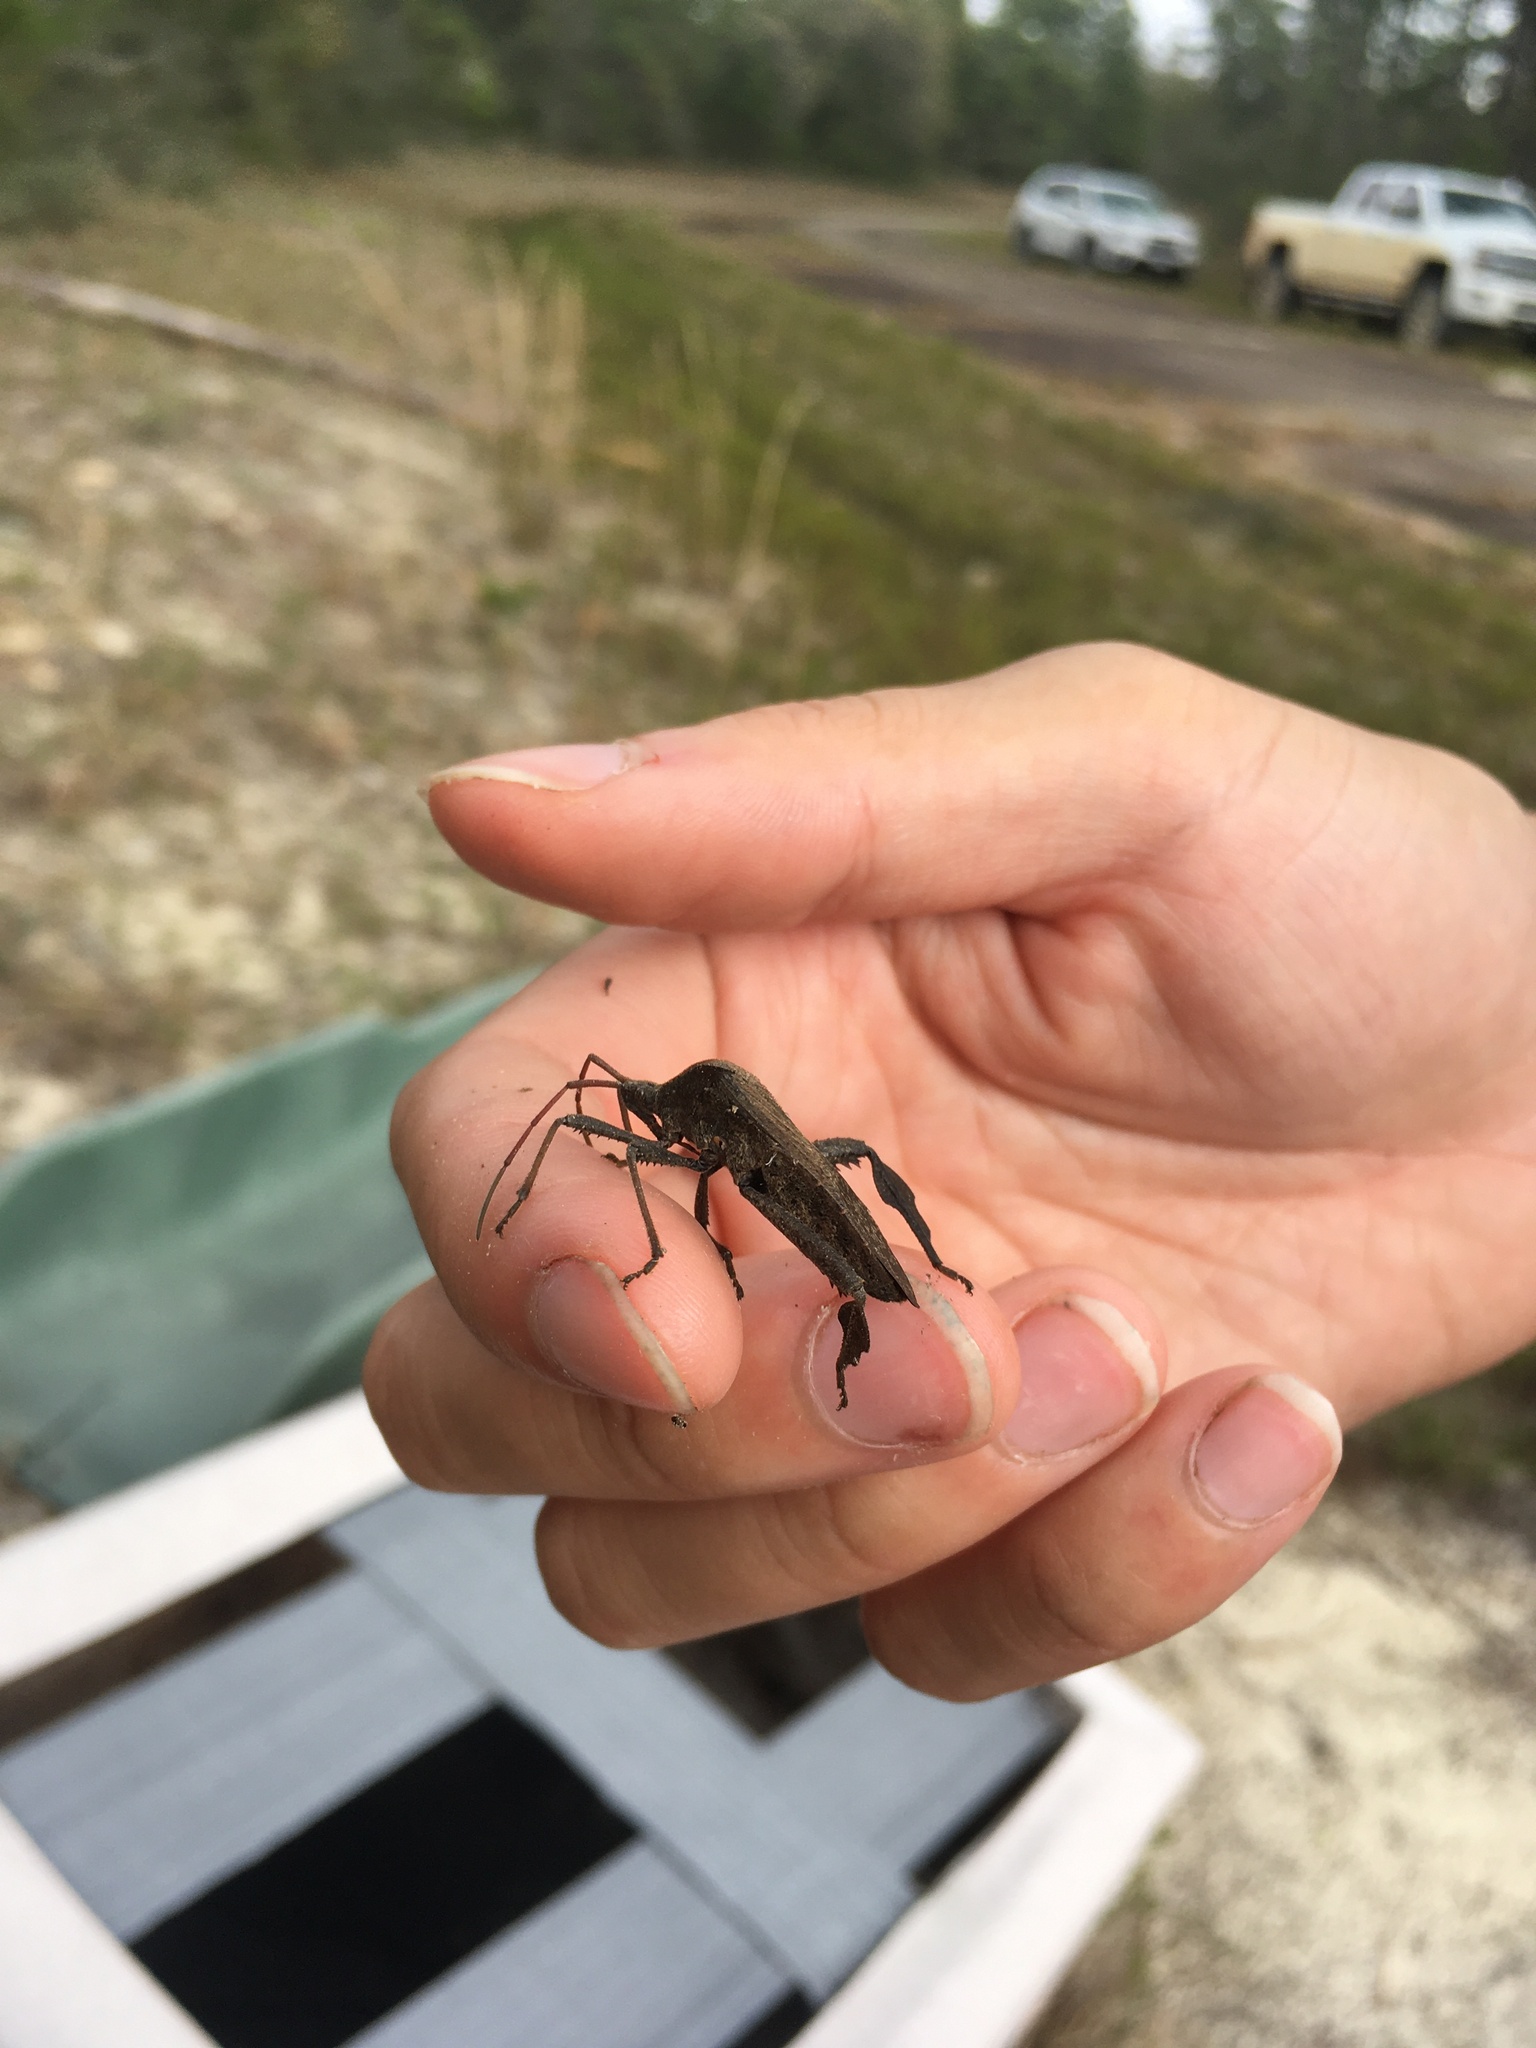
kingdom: Animalia
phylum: Arthropoda
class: Insecta
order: Hemiptera
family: Coreidae
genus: Acanthocephala
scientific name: Acanthocephala femorata
